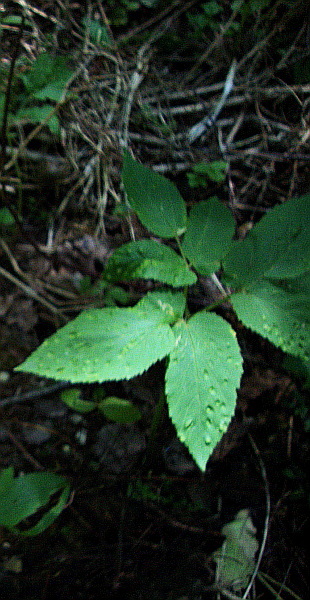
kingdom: Plantae
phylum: Tracheophyta
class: Magnoliopsida
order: Apiales
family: Apiaceae
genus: Aegopodium
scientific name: Aegopodium podagraria
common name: Ground-elder
